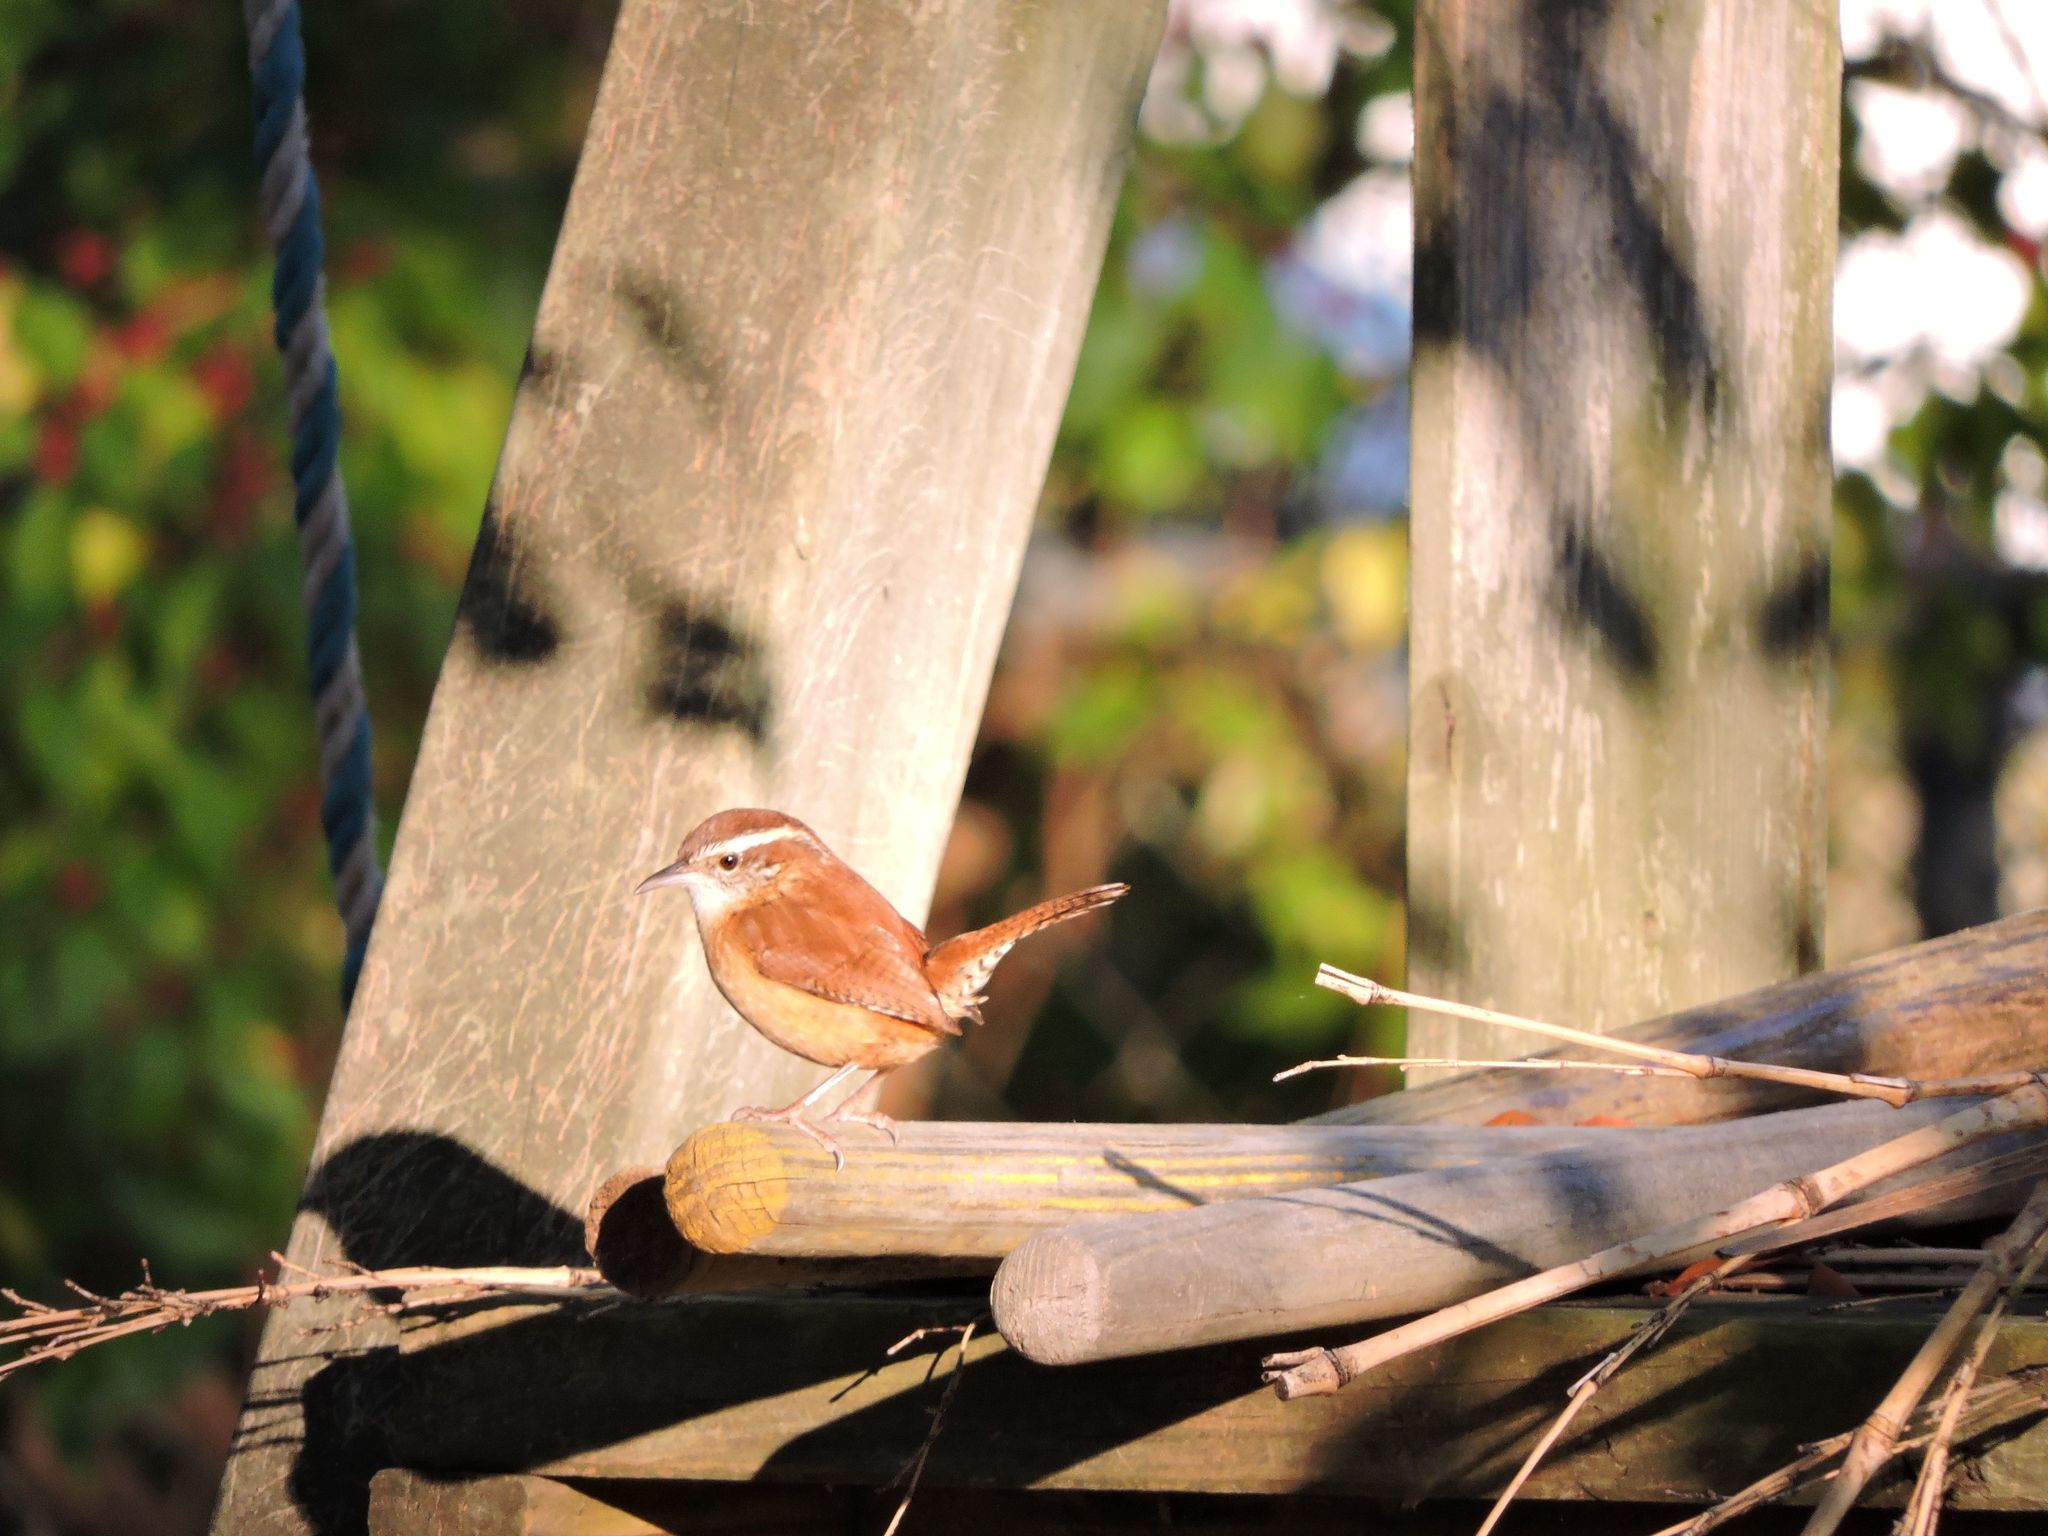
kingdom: Animalia
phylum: Chordata
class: Aves
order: Passeriformes
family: Troglodytidae
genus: Thryothorus
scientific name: Thryothorus ludovicianus
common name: Carolina wren
